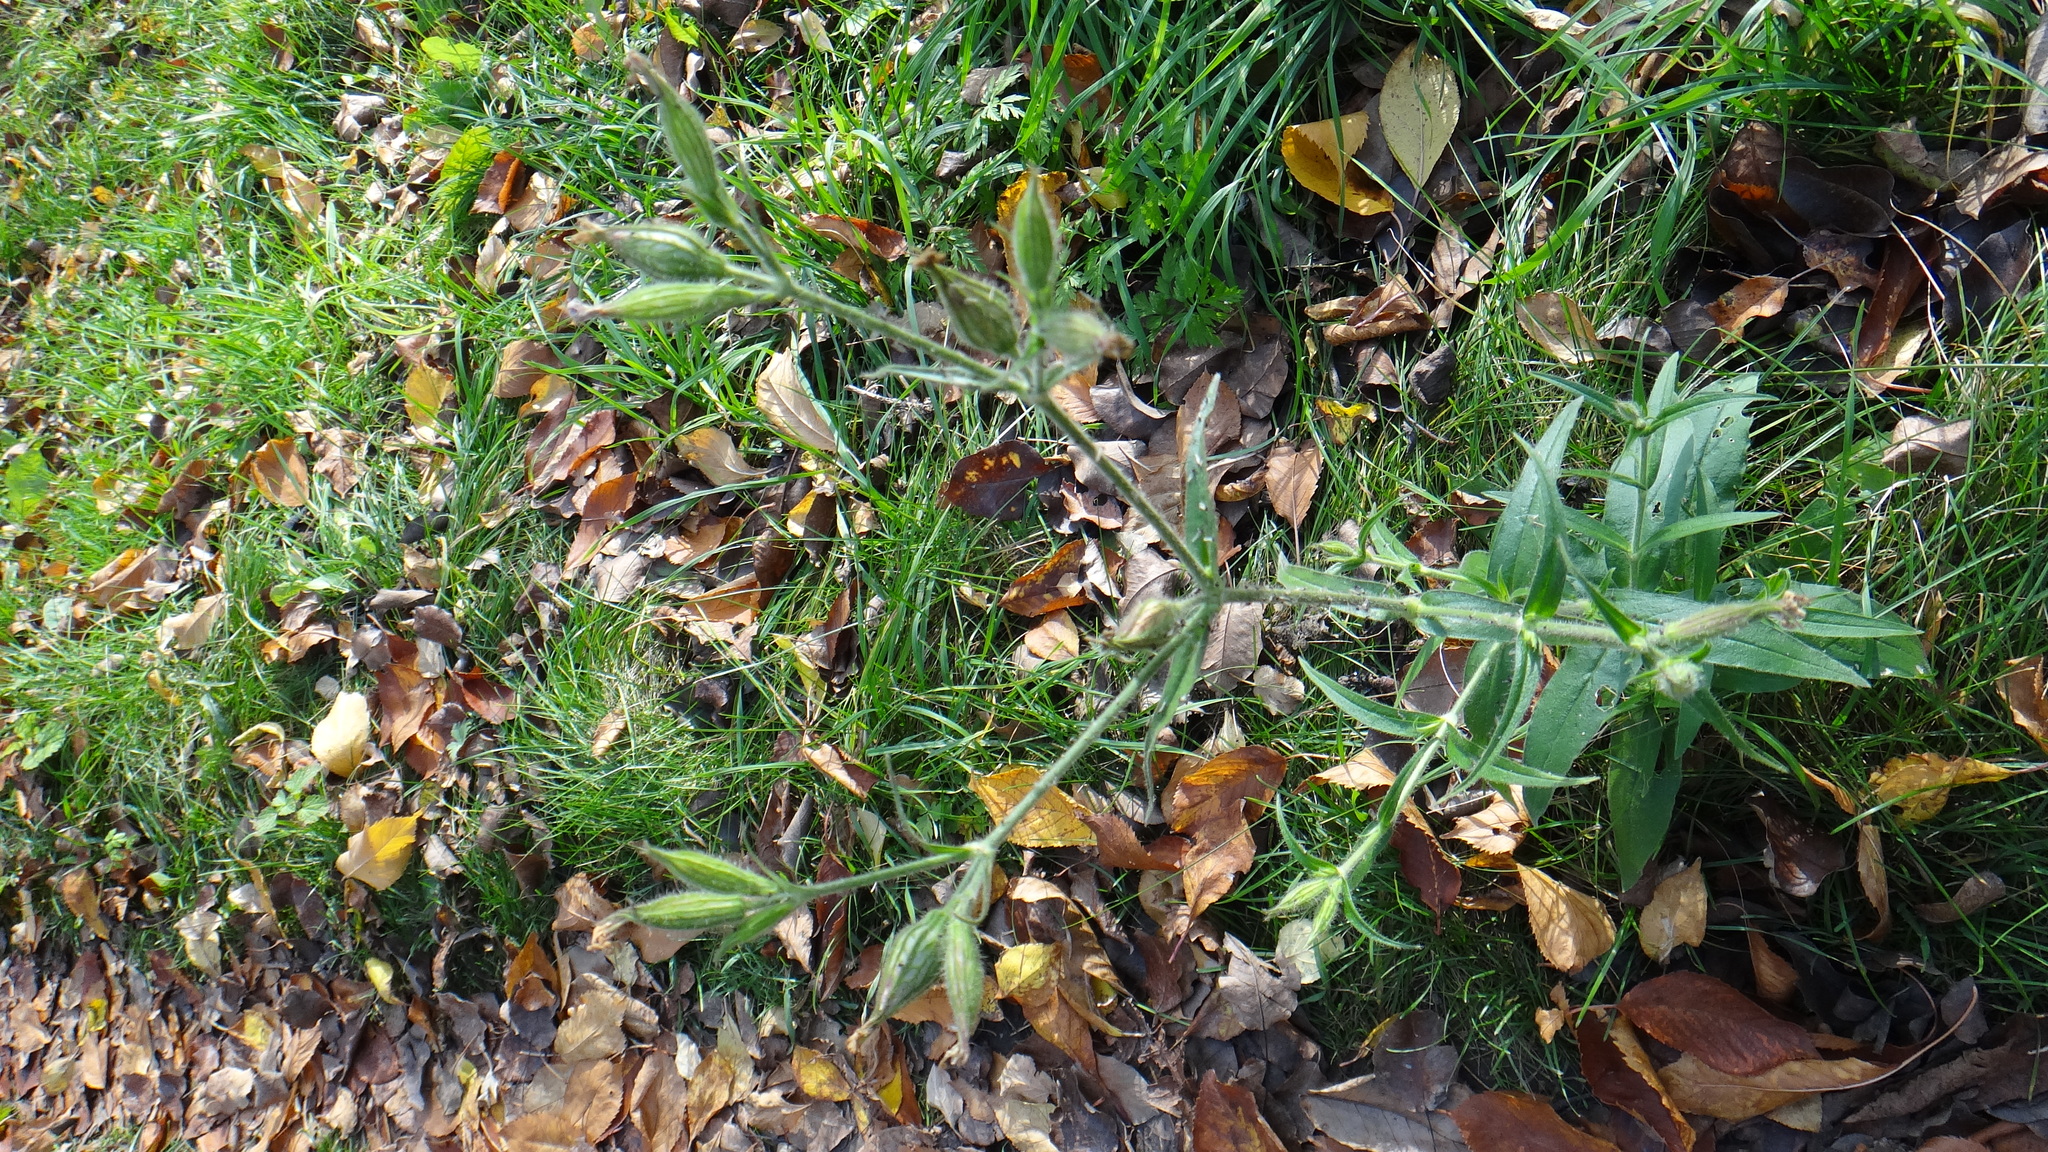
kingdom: Plantae
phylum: Tracheophyta
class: Magnoliopsida
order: Caryophyllales
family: Caryophyllaceae
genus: Silene
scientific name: Silene noctiflora
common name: Night-flowering catchfly
